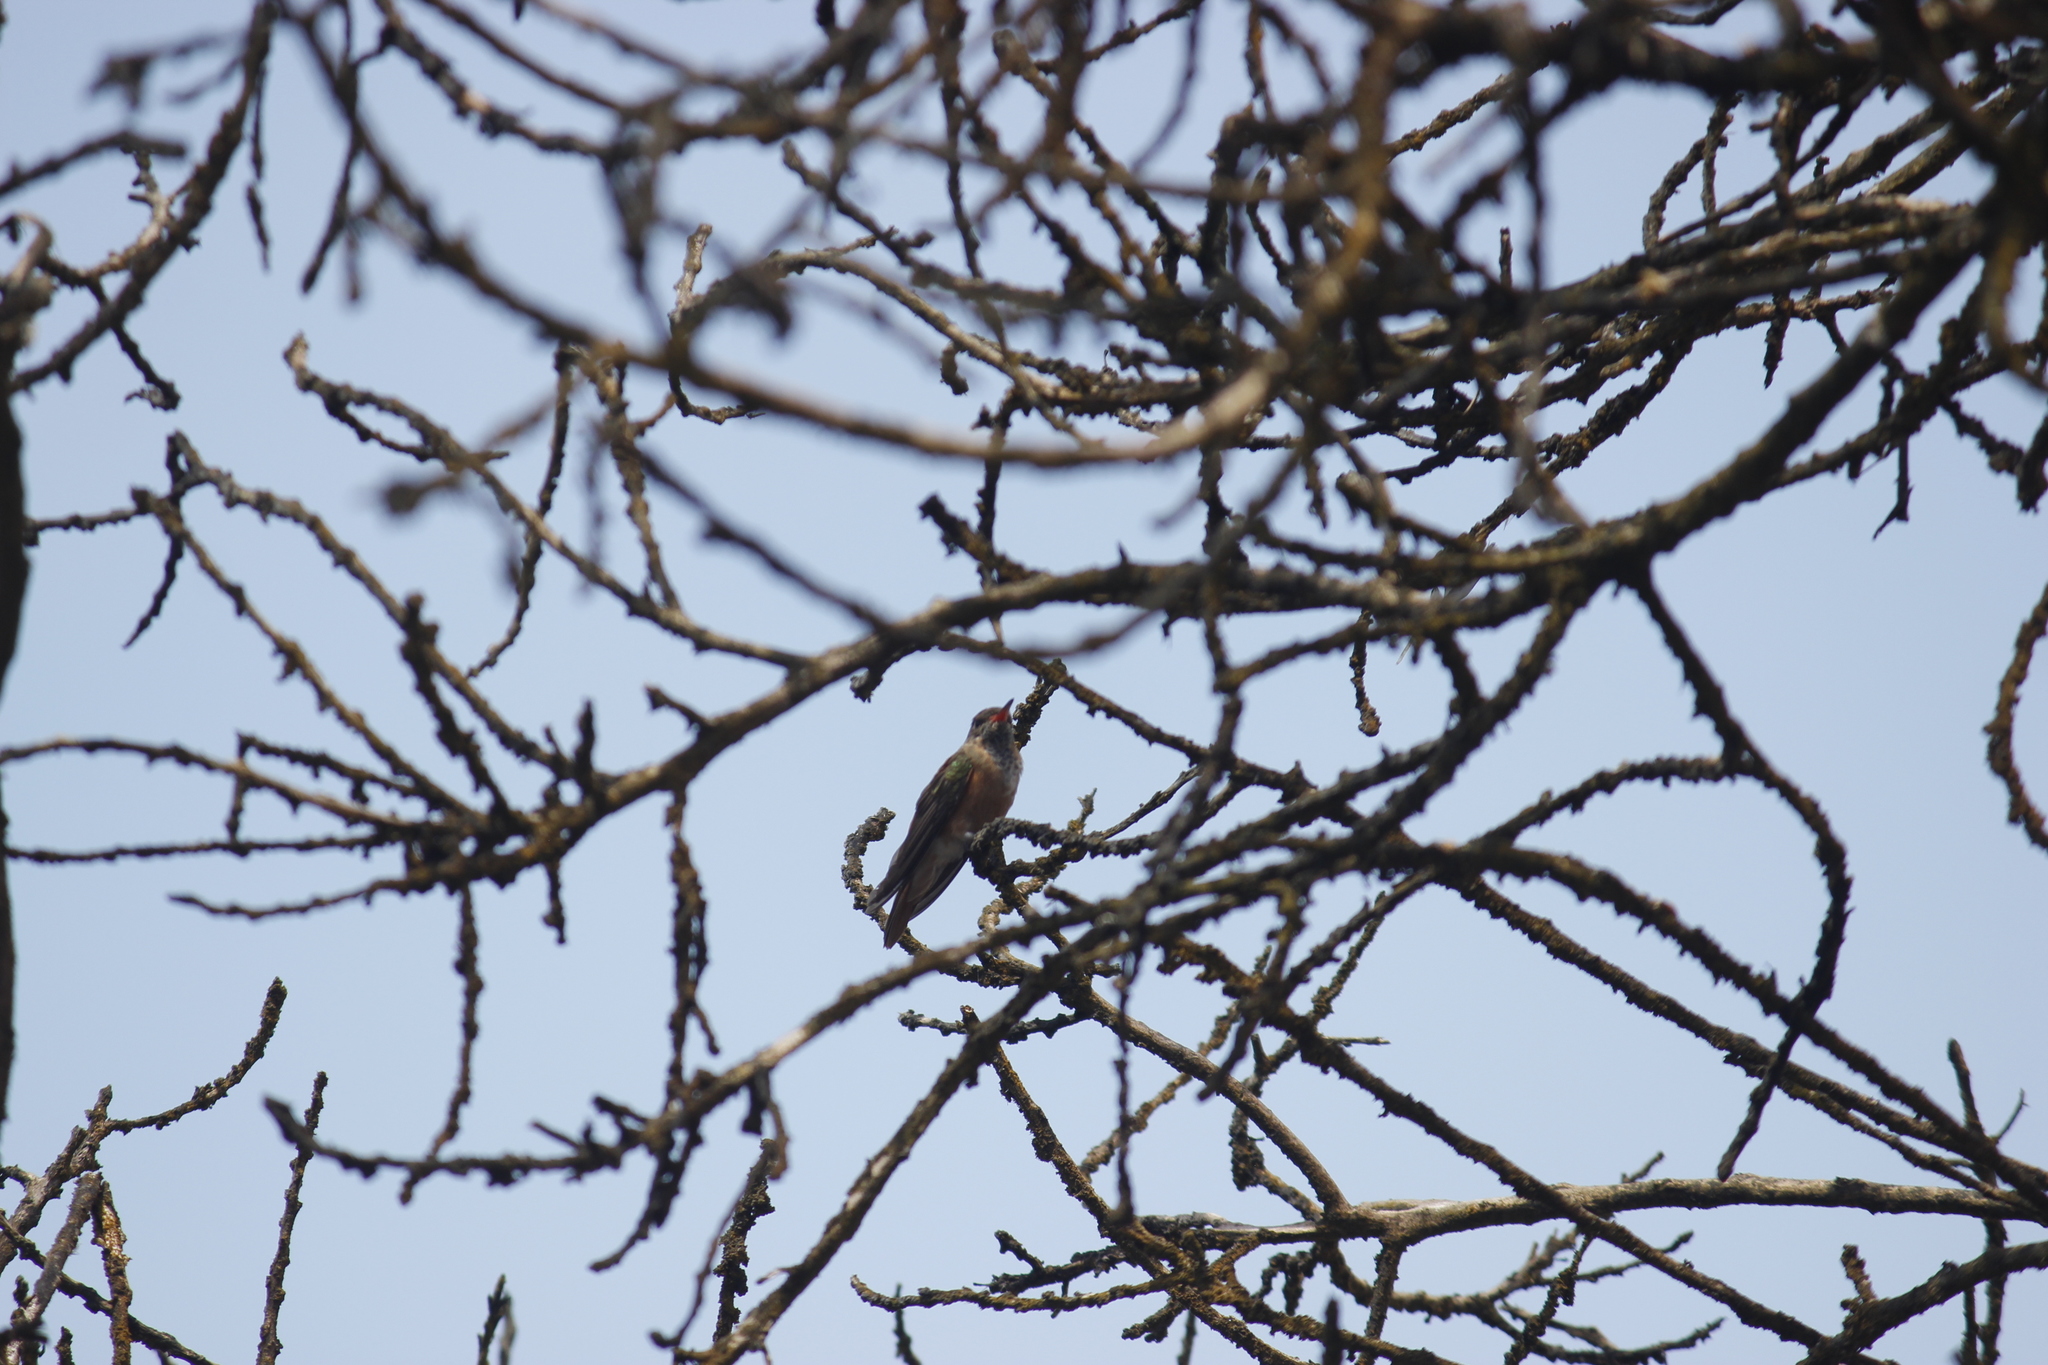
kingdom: Animalia
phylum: Chordata
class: Aves
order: Apodiformes
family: Trochilidae
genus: Amazilis
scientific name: Amazilis amazilia
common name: Amazilia hummingbird
